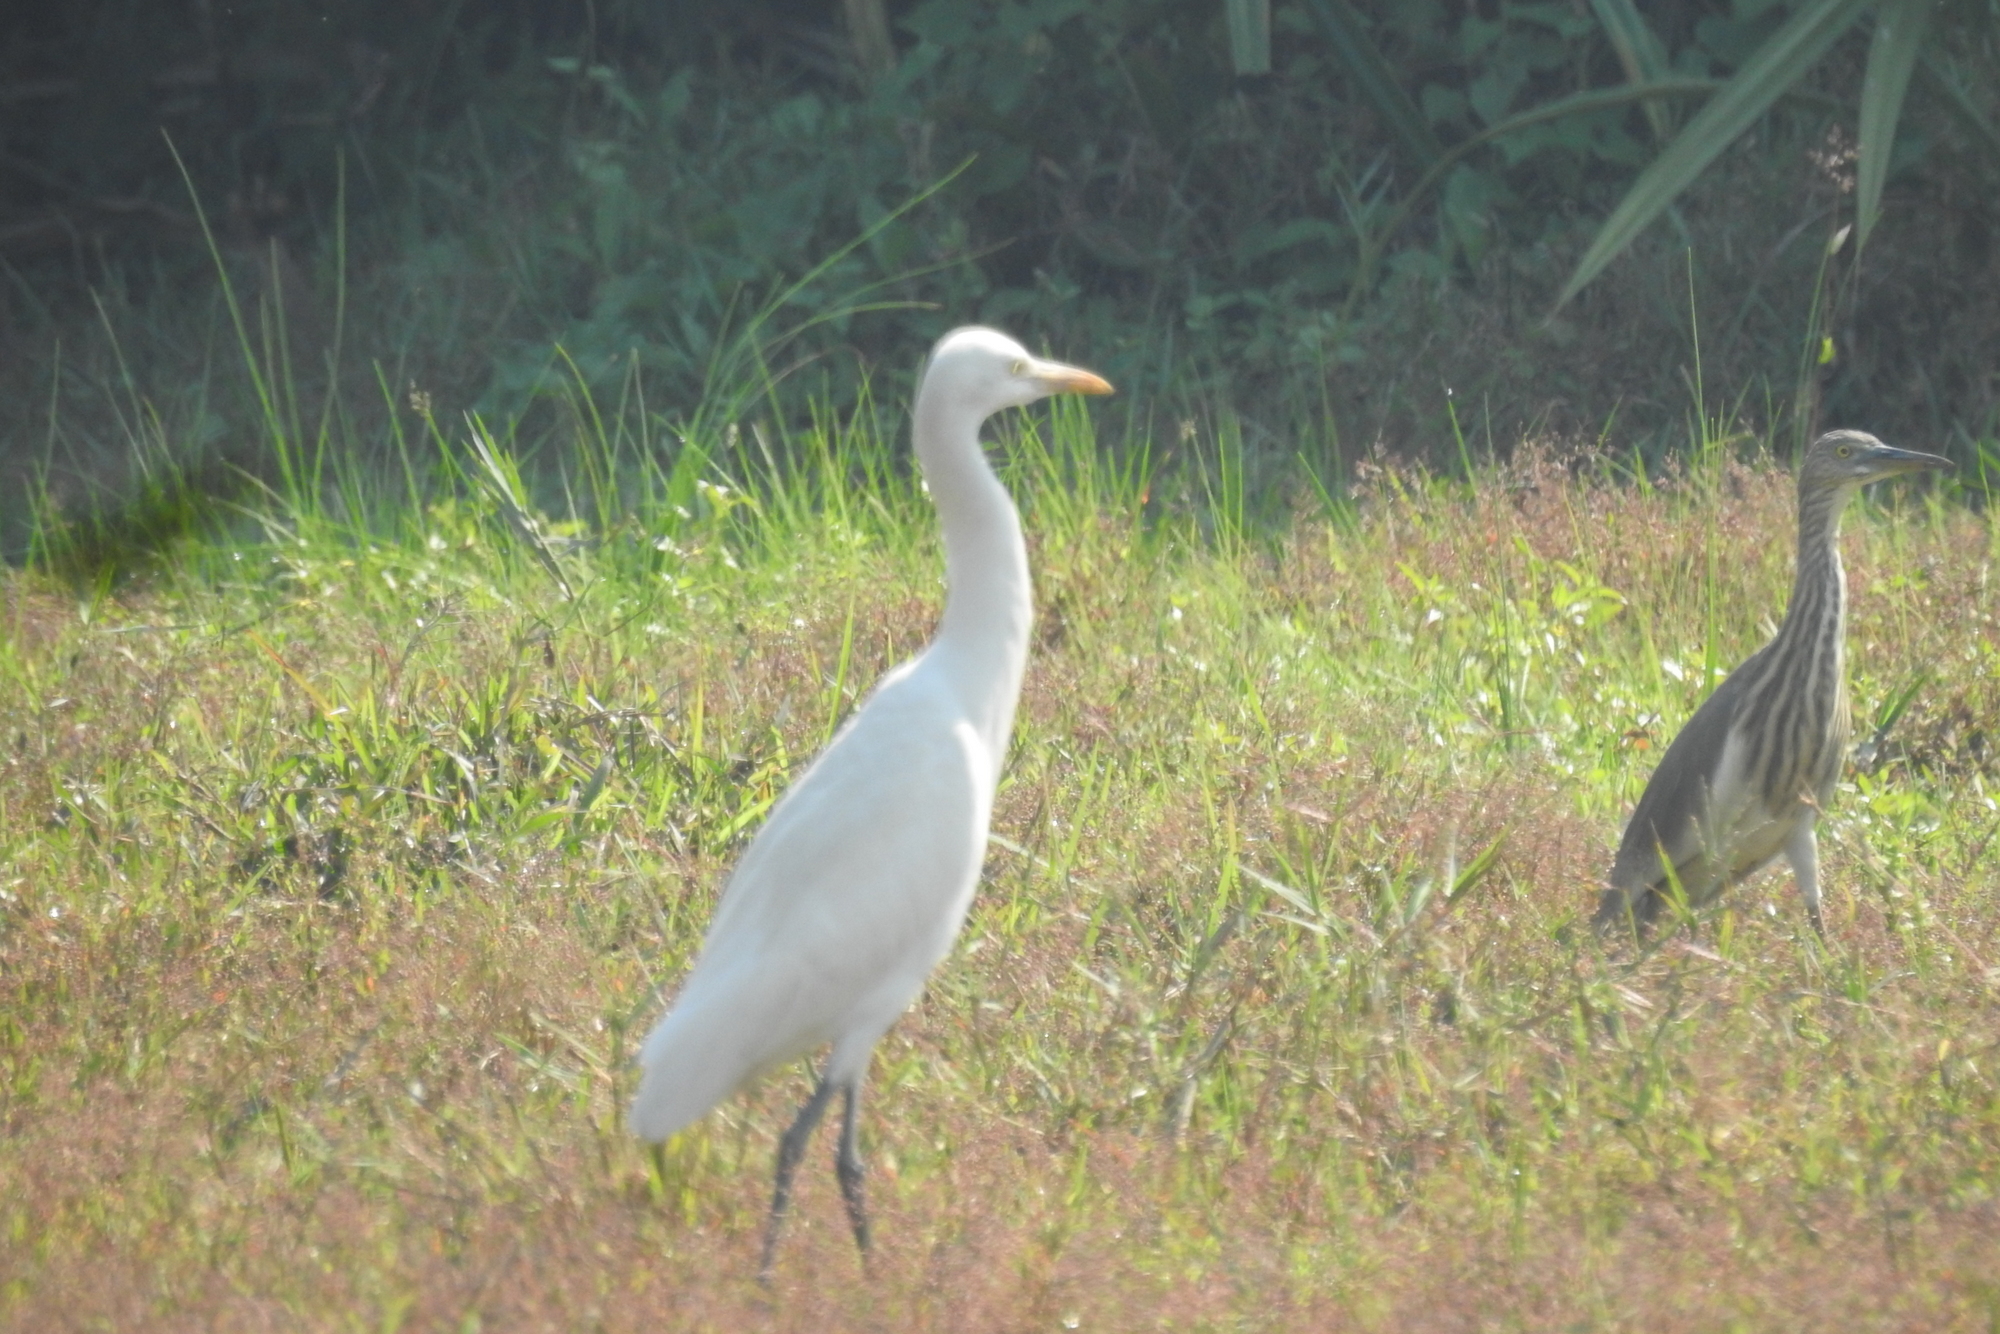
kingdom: Animalia
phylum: Chordata
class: Aves
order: Pelecaniformes
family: Ardeidae
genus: Bubulcus
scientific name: Bubulcus coromandus
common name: Eastern cattle egret
